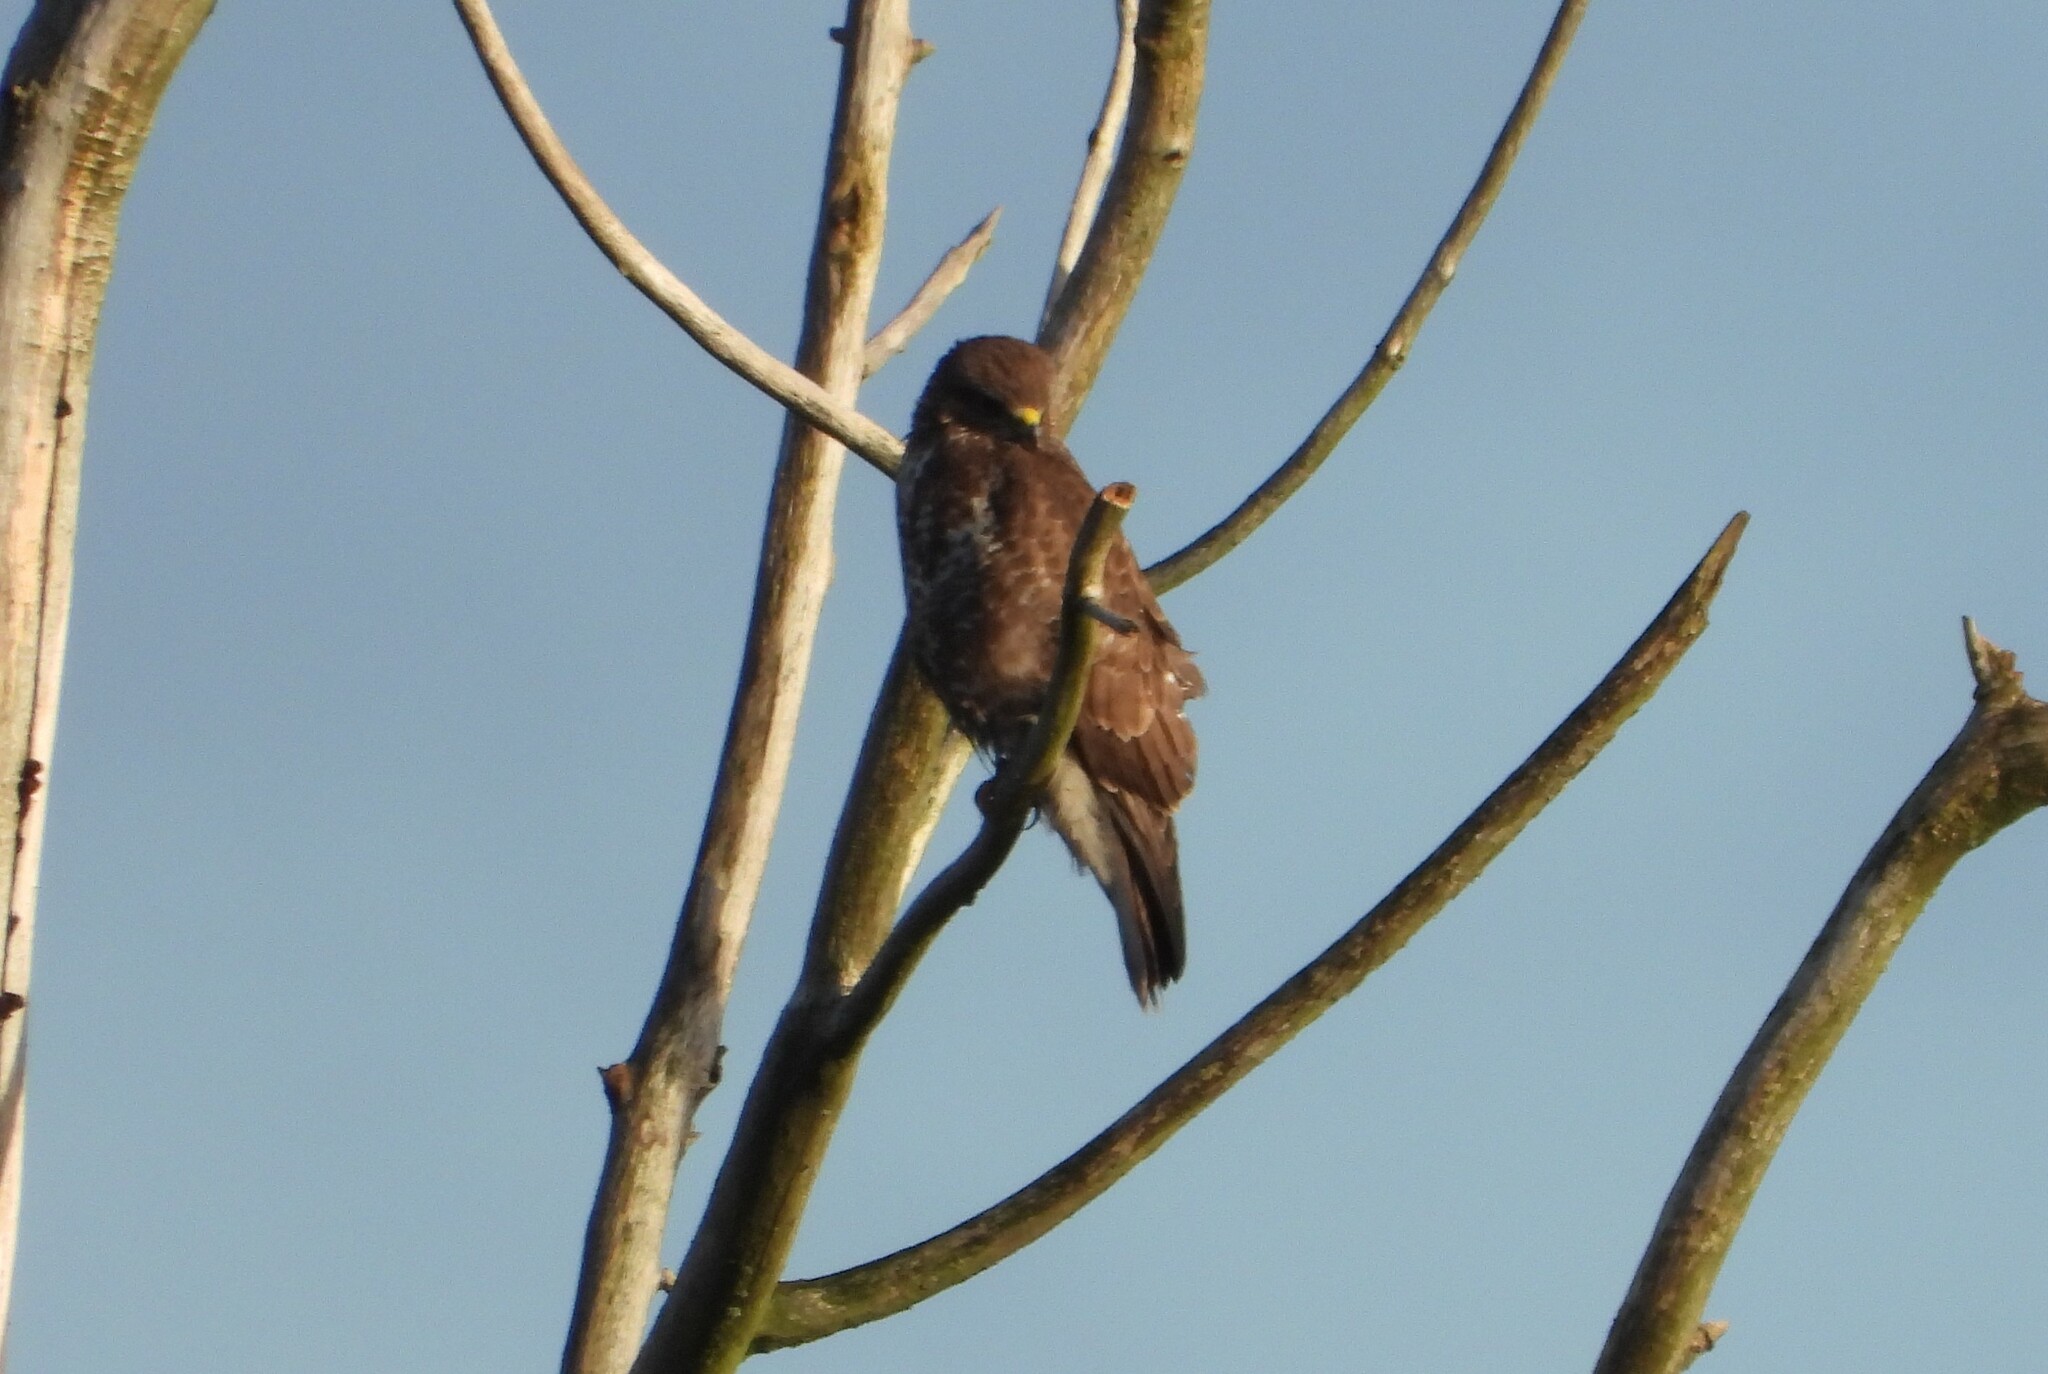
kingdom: Animalia
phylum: Chordata
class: Aves
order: Accipitriformes
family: Accipitridae
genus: Buteo
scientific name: Buteo buteo
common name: Common buzzard
